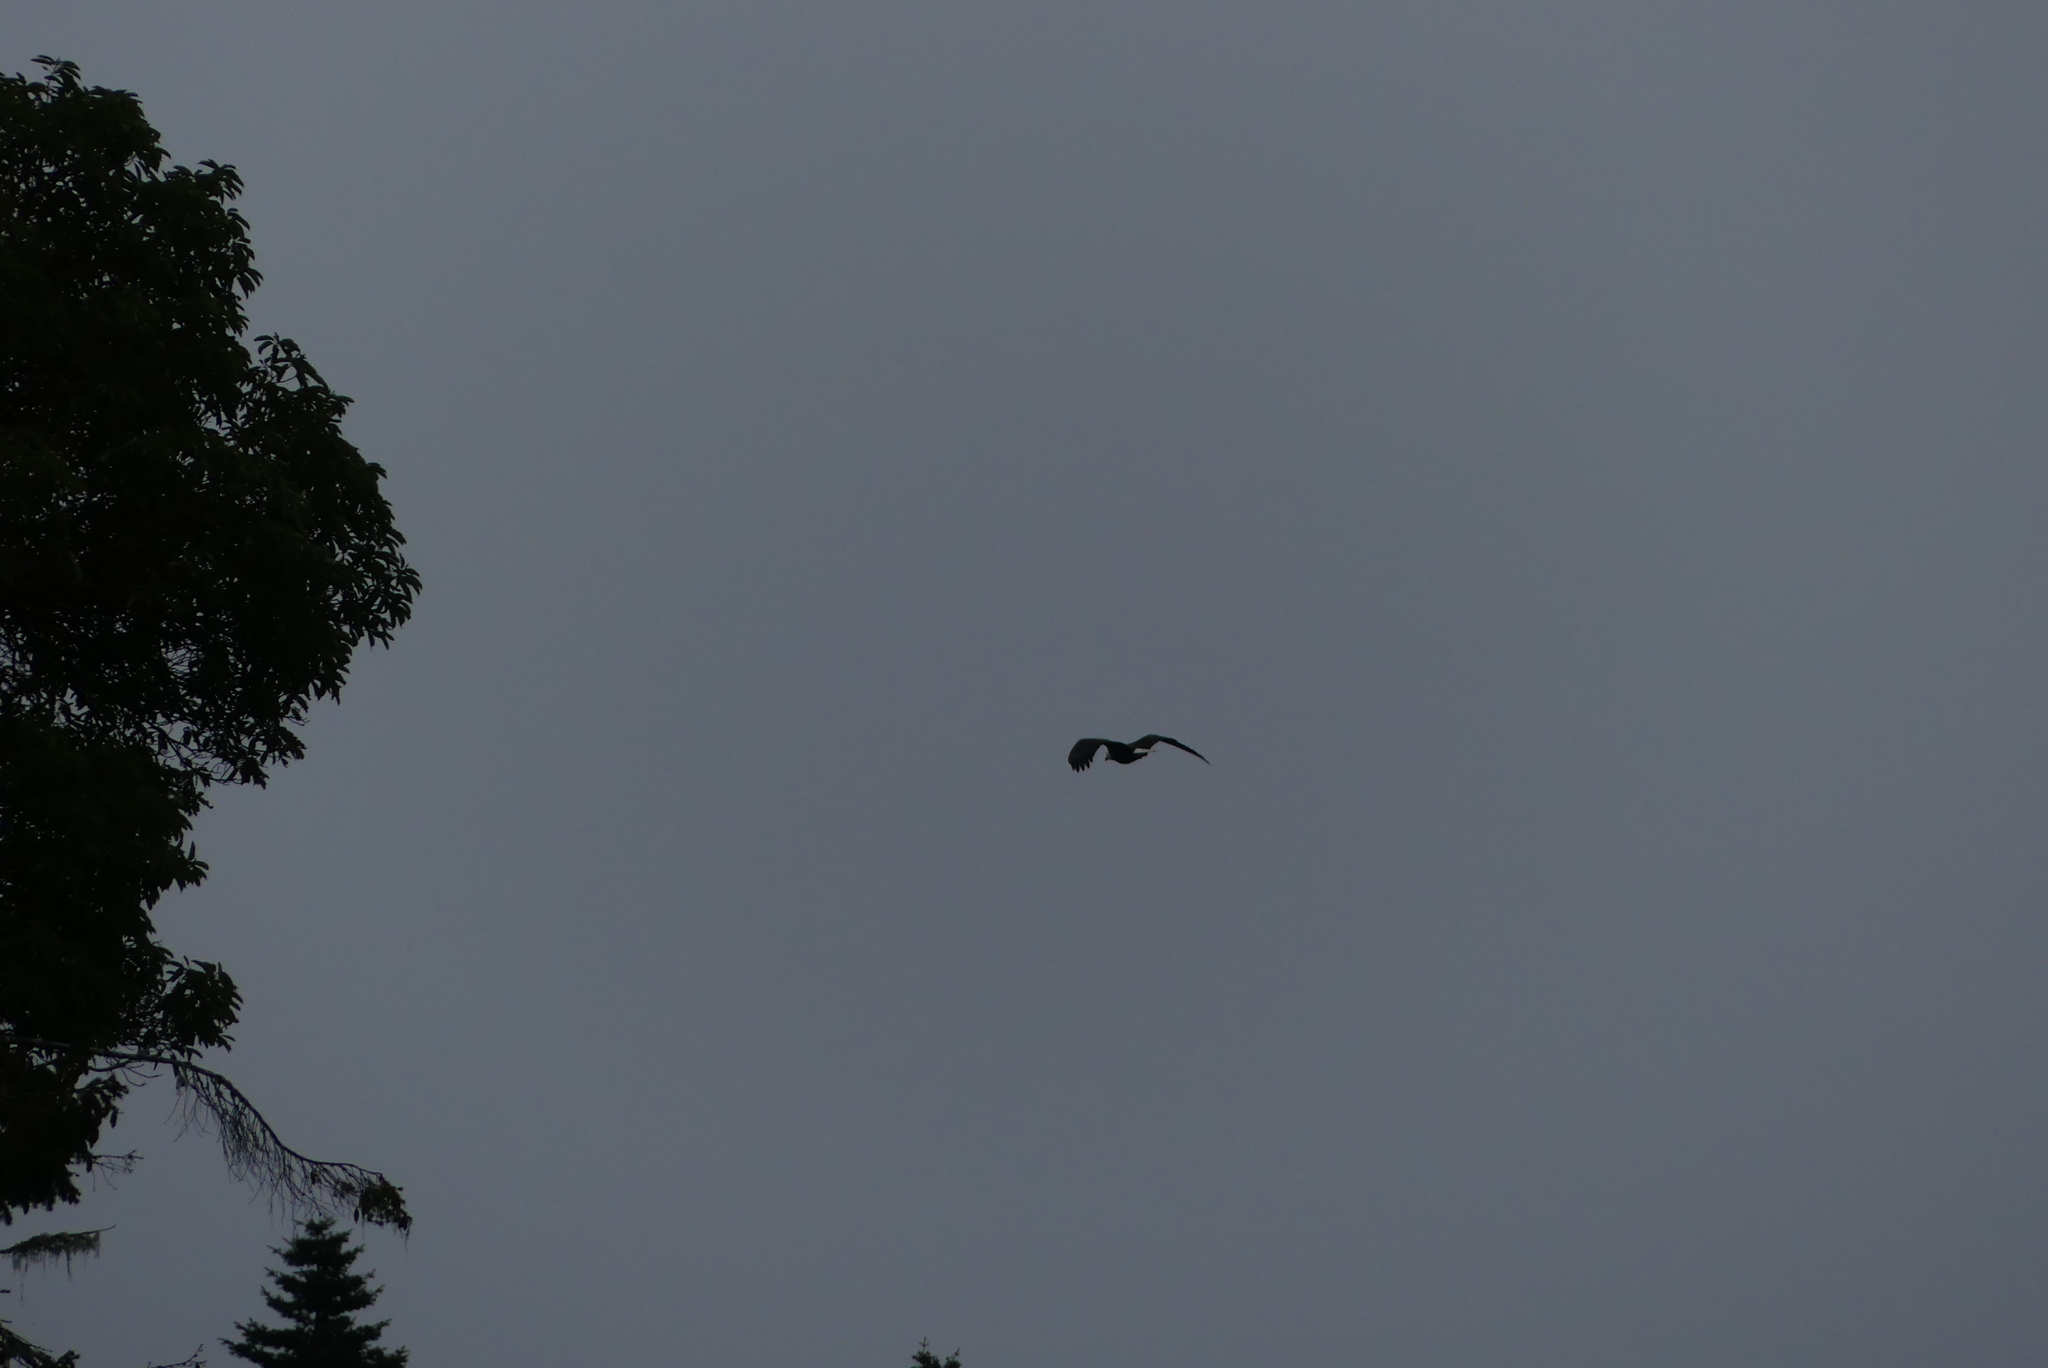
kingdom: Animalia
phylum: Chordata
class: Aves
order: Accipitriformes
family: Accipitridae
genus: Haliaeetus
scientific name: Haliaeetus leucocephalus
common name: Bald eagle
